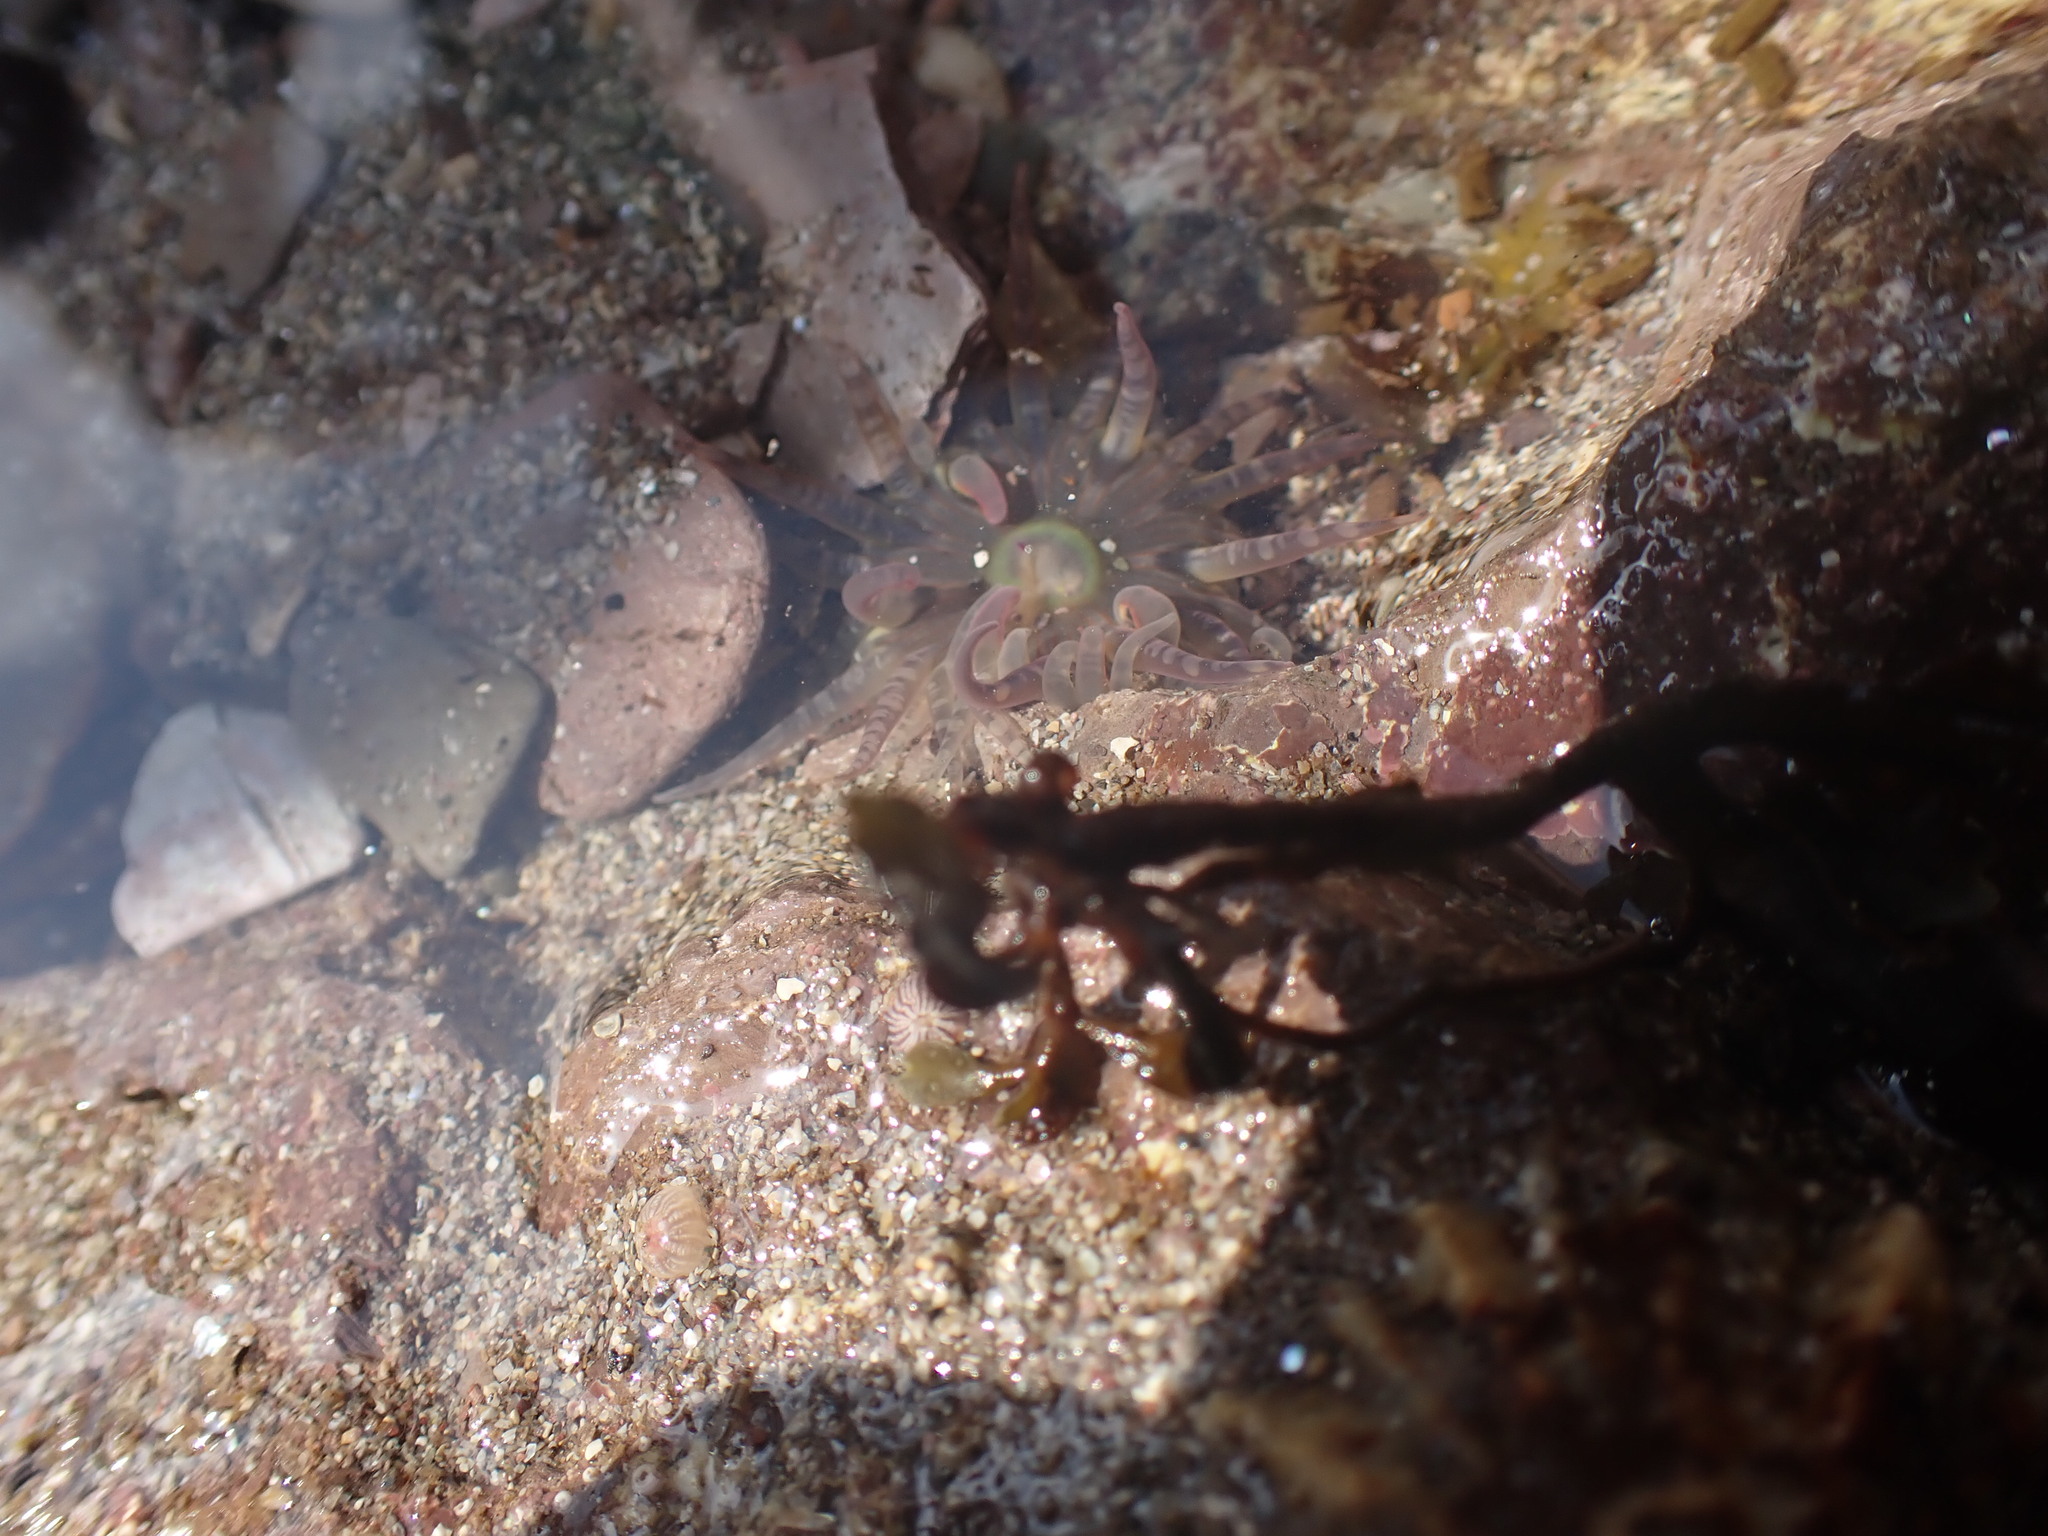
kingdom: Animalia
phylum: Cnidaria
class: Anthozoa
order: Actiniaria
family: Actiniidae
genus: Bunodactis
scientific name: Bunodactis verrucosa
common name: Gem anemone
